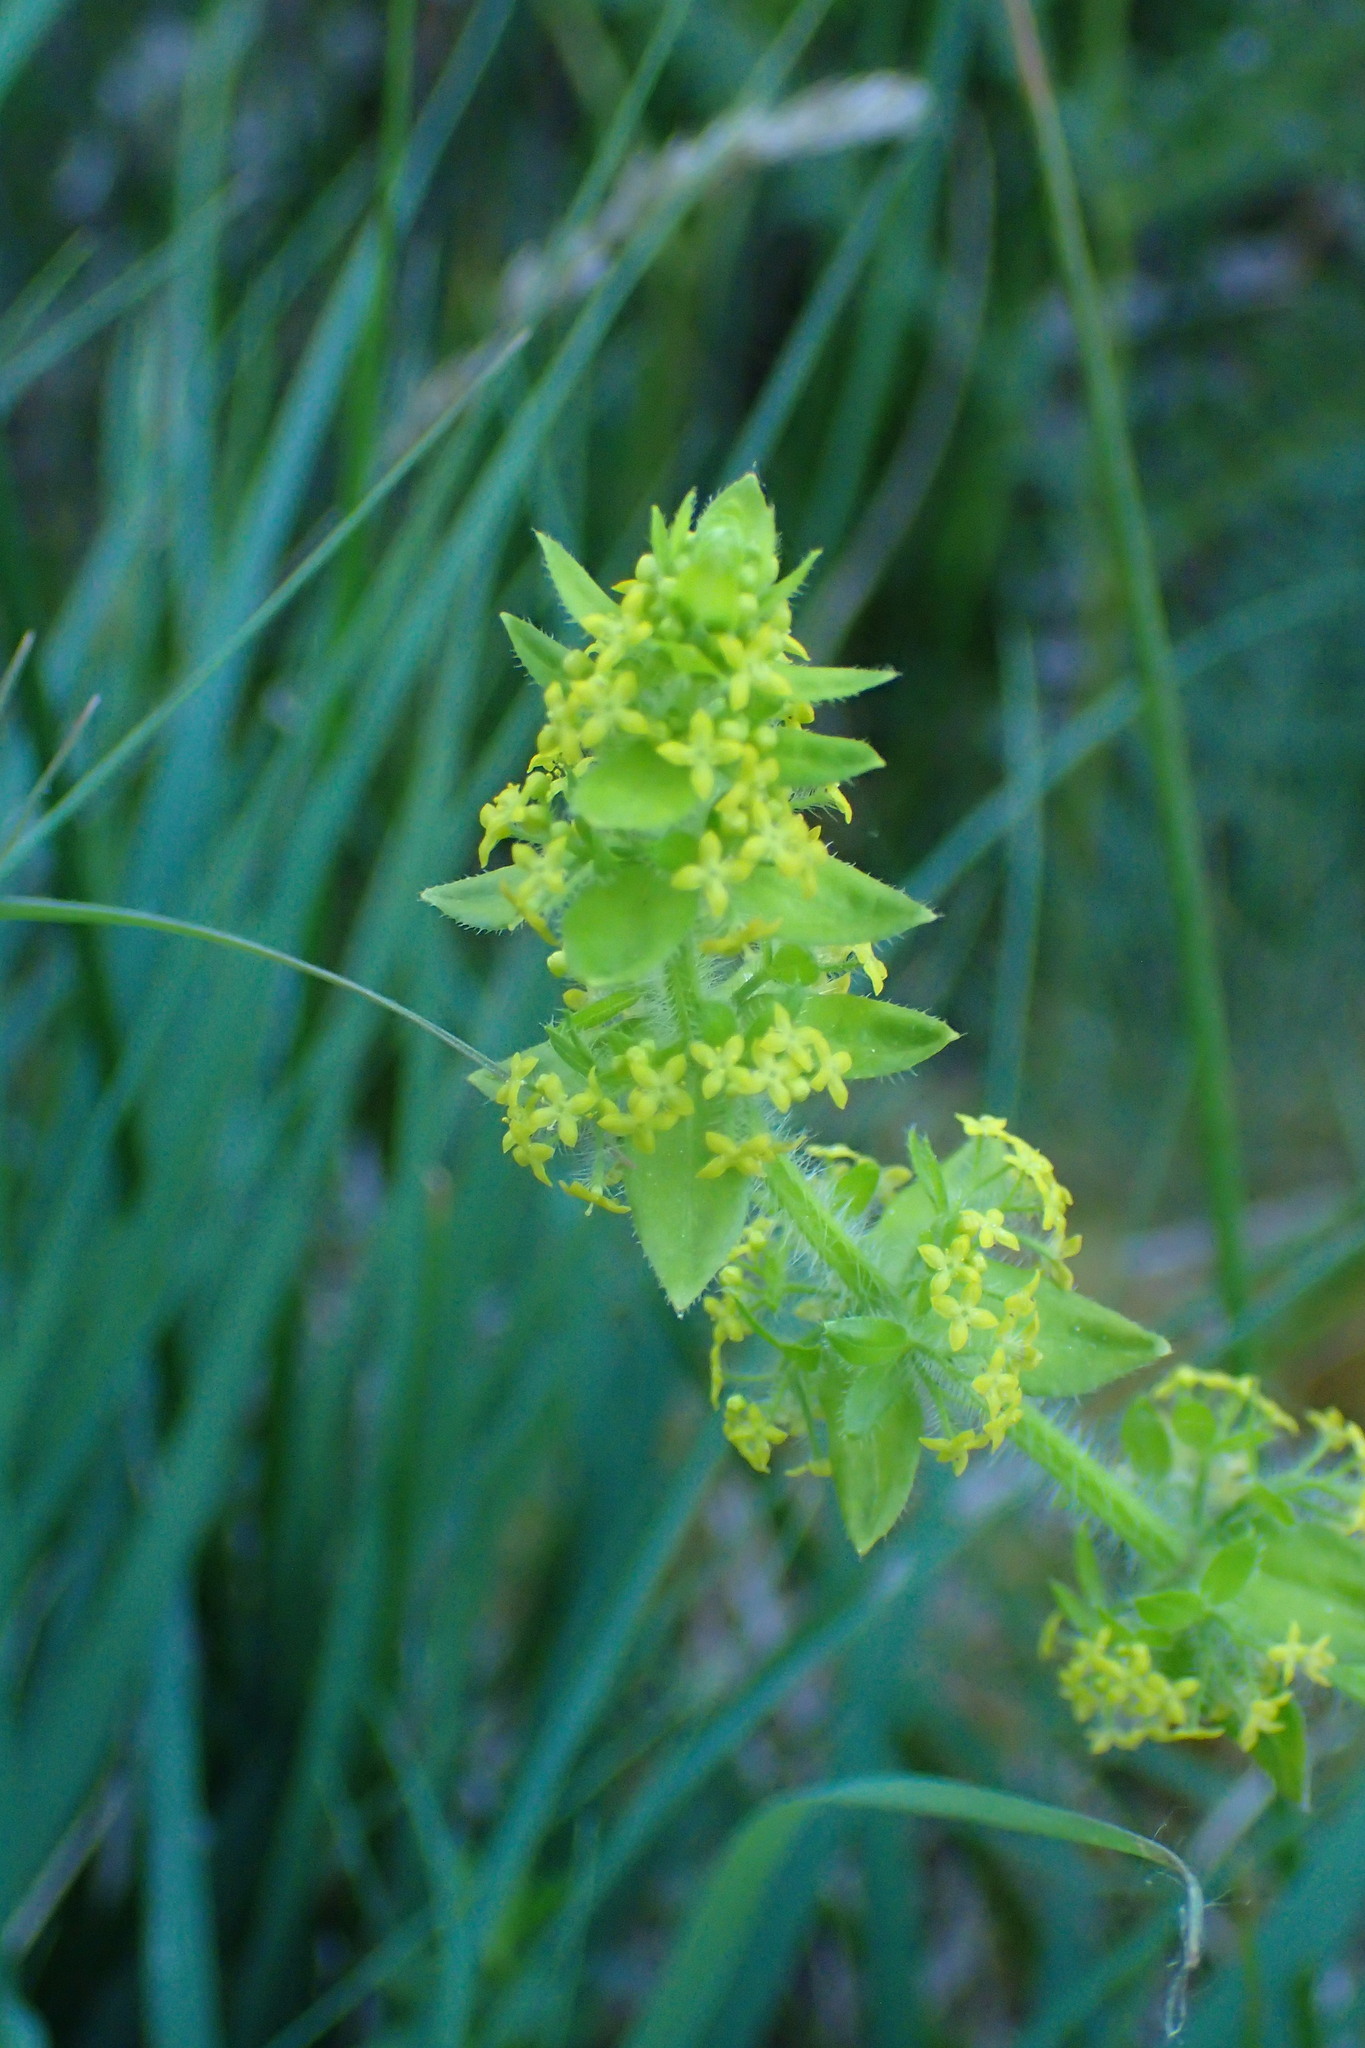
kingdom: Plantae
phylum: Tracheophyta
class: Magnoliopsida
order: Gentianales
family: Rubiaceae
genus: Cruciata
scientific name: Cruciata laevipes
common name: Crosswort
